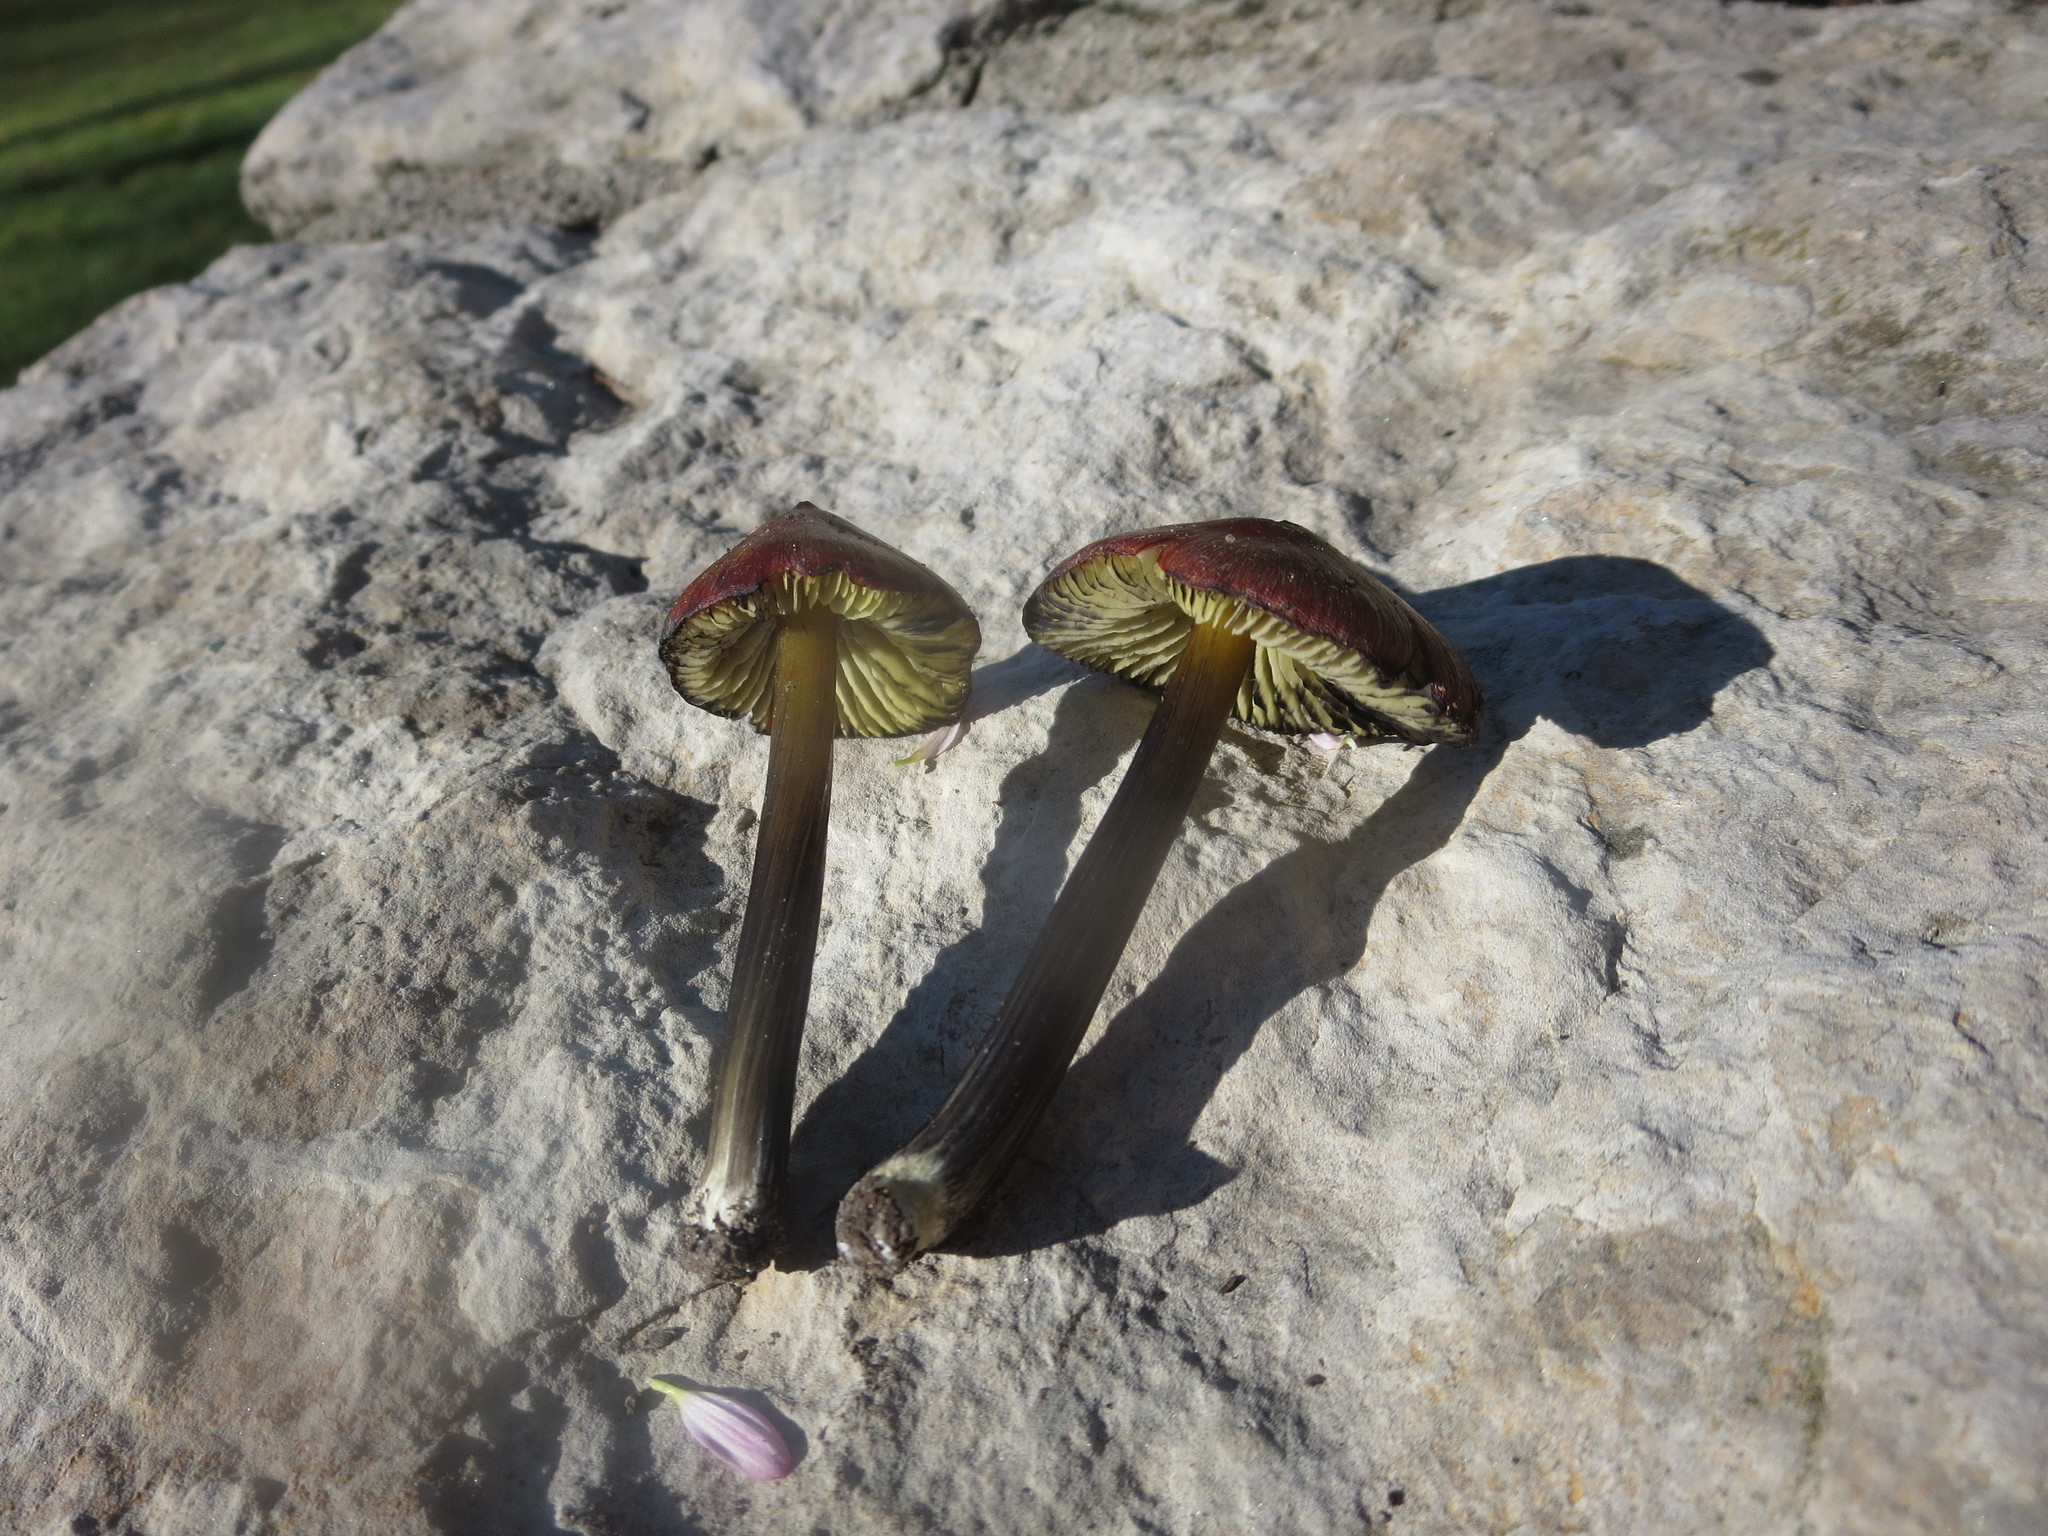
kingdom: Fungi
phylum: Basidiomycota
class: Agaricomycetes
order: Agaricales
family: Hygrophoraceae
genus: Hygrocybe
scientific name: Hygrocybe conica
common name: Blackening wax-cap
